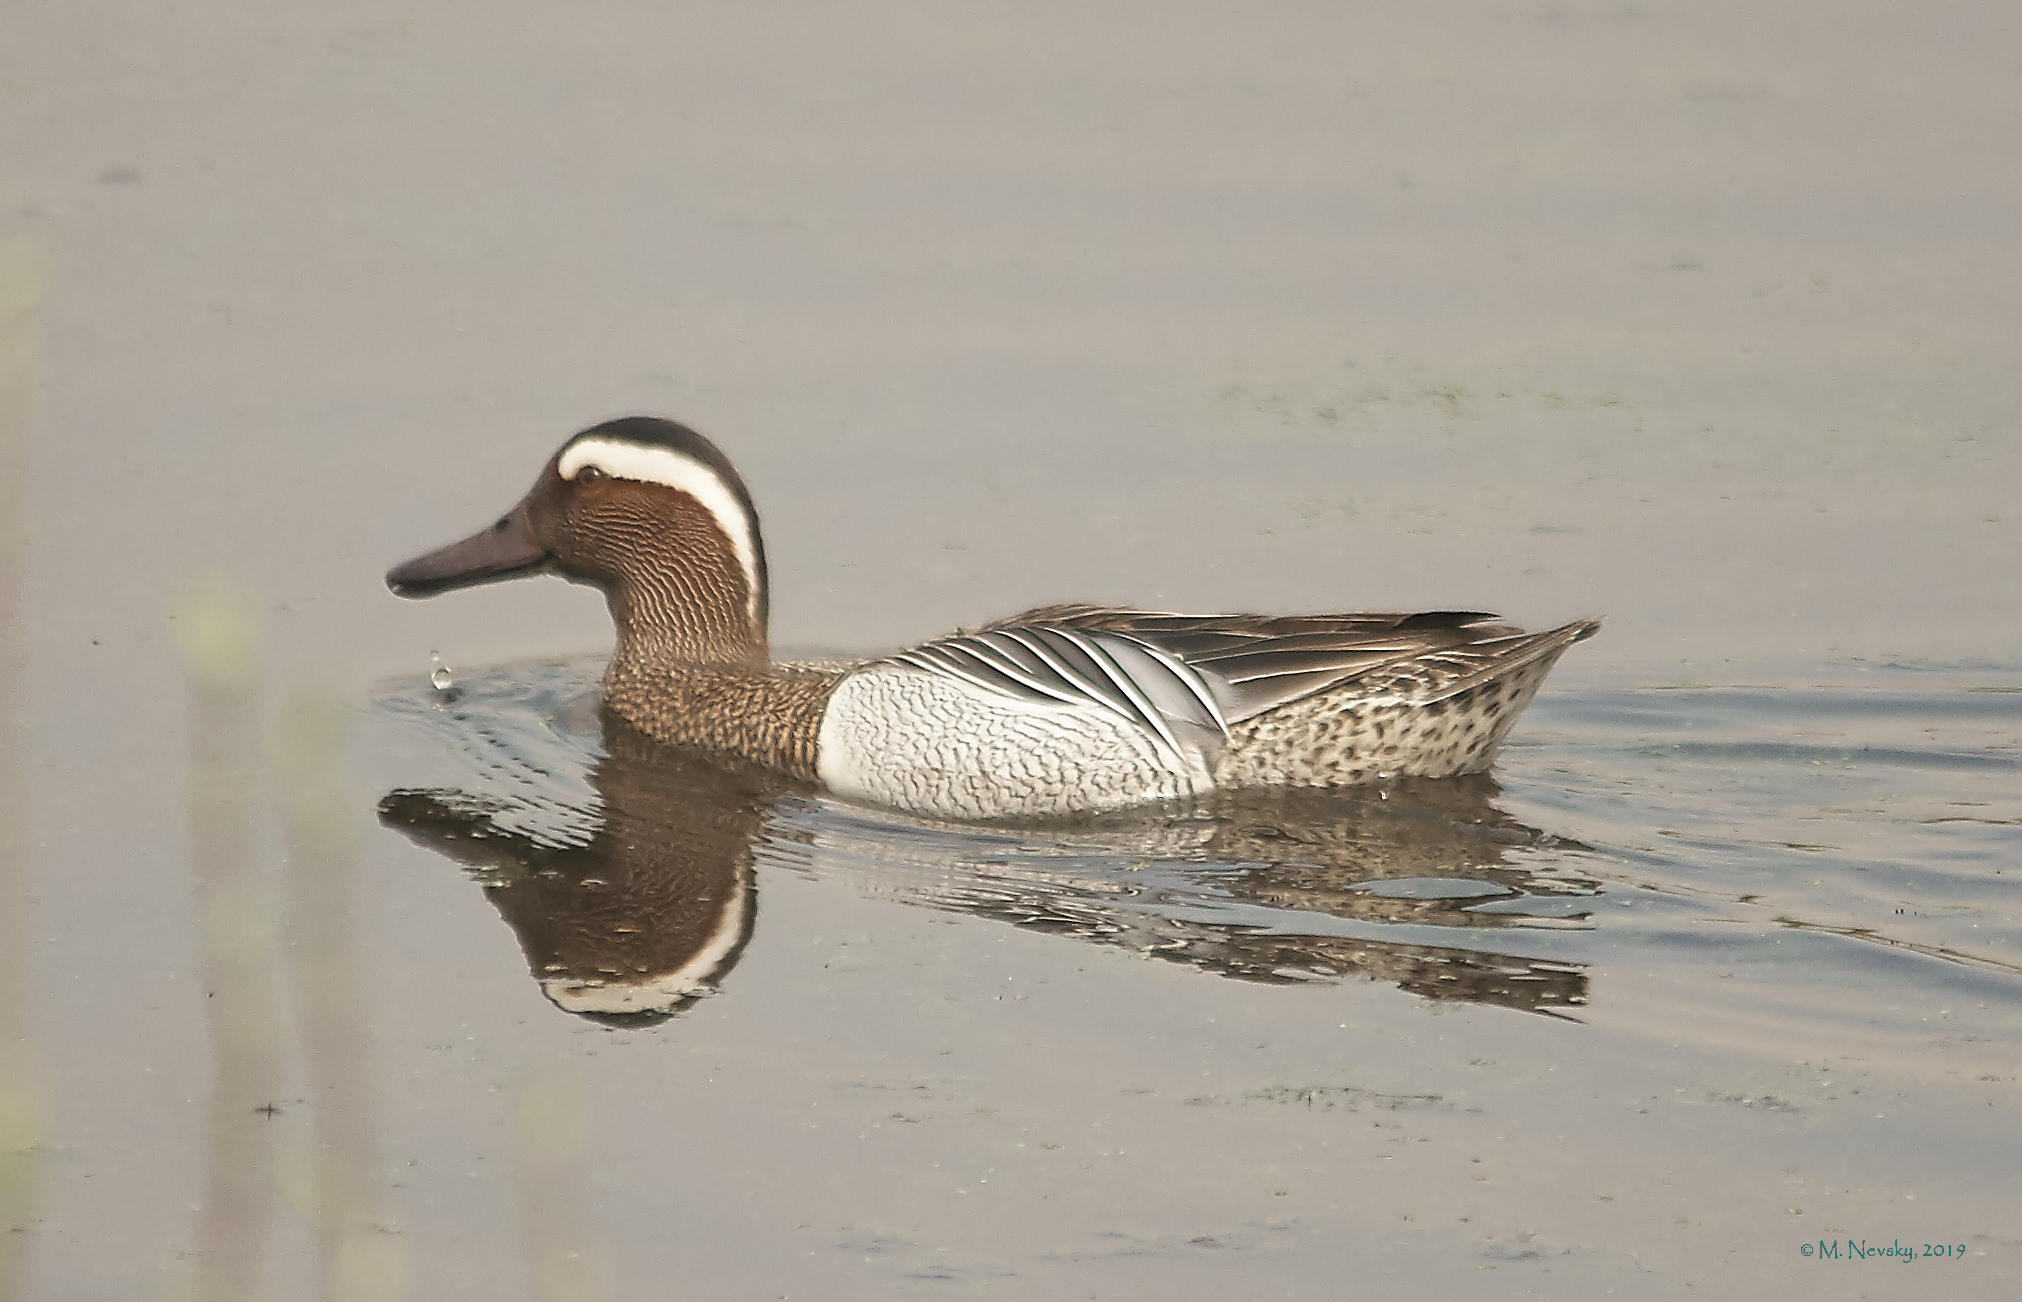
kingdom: Animalia
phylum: Chordata
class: Aves
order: Anseriformes
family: Anatidae
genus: Spatula
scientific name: Spatula querquedula
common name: Garganey
